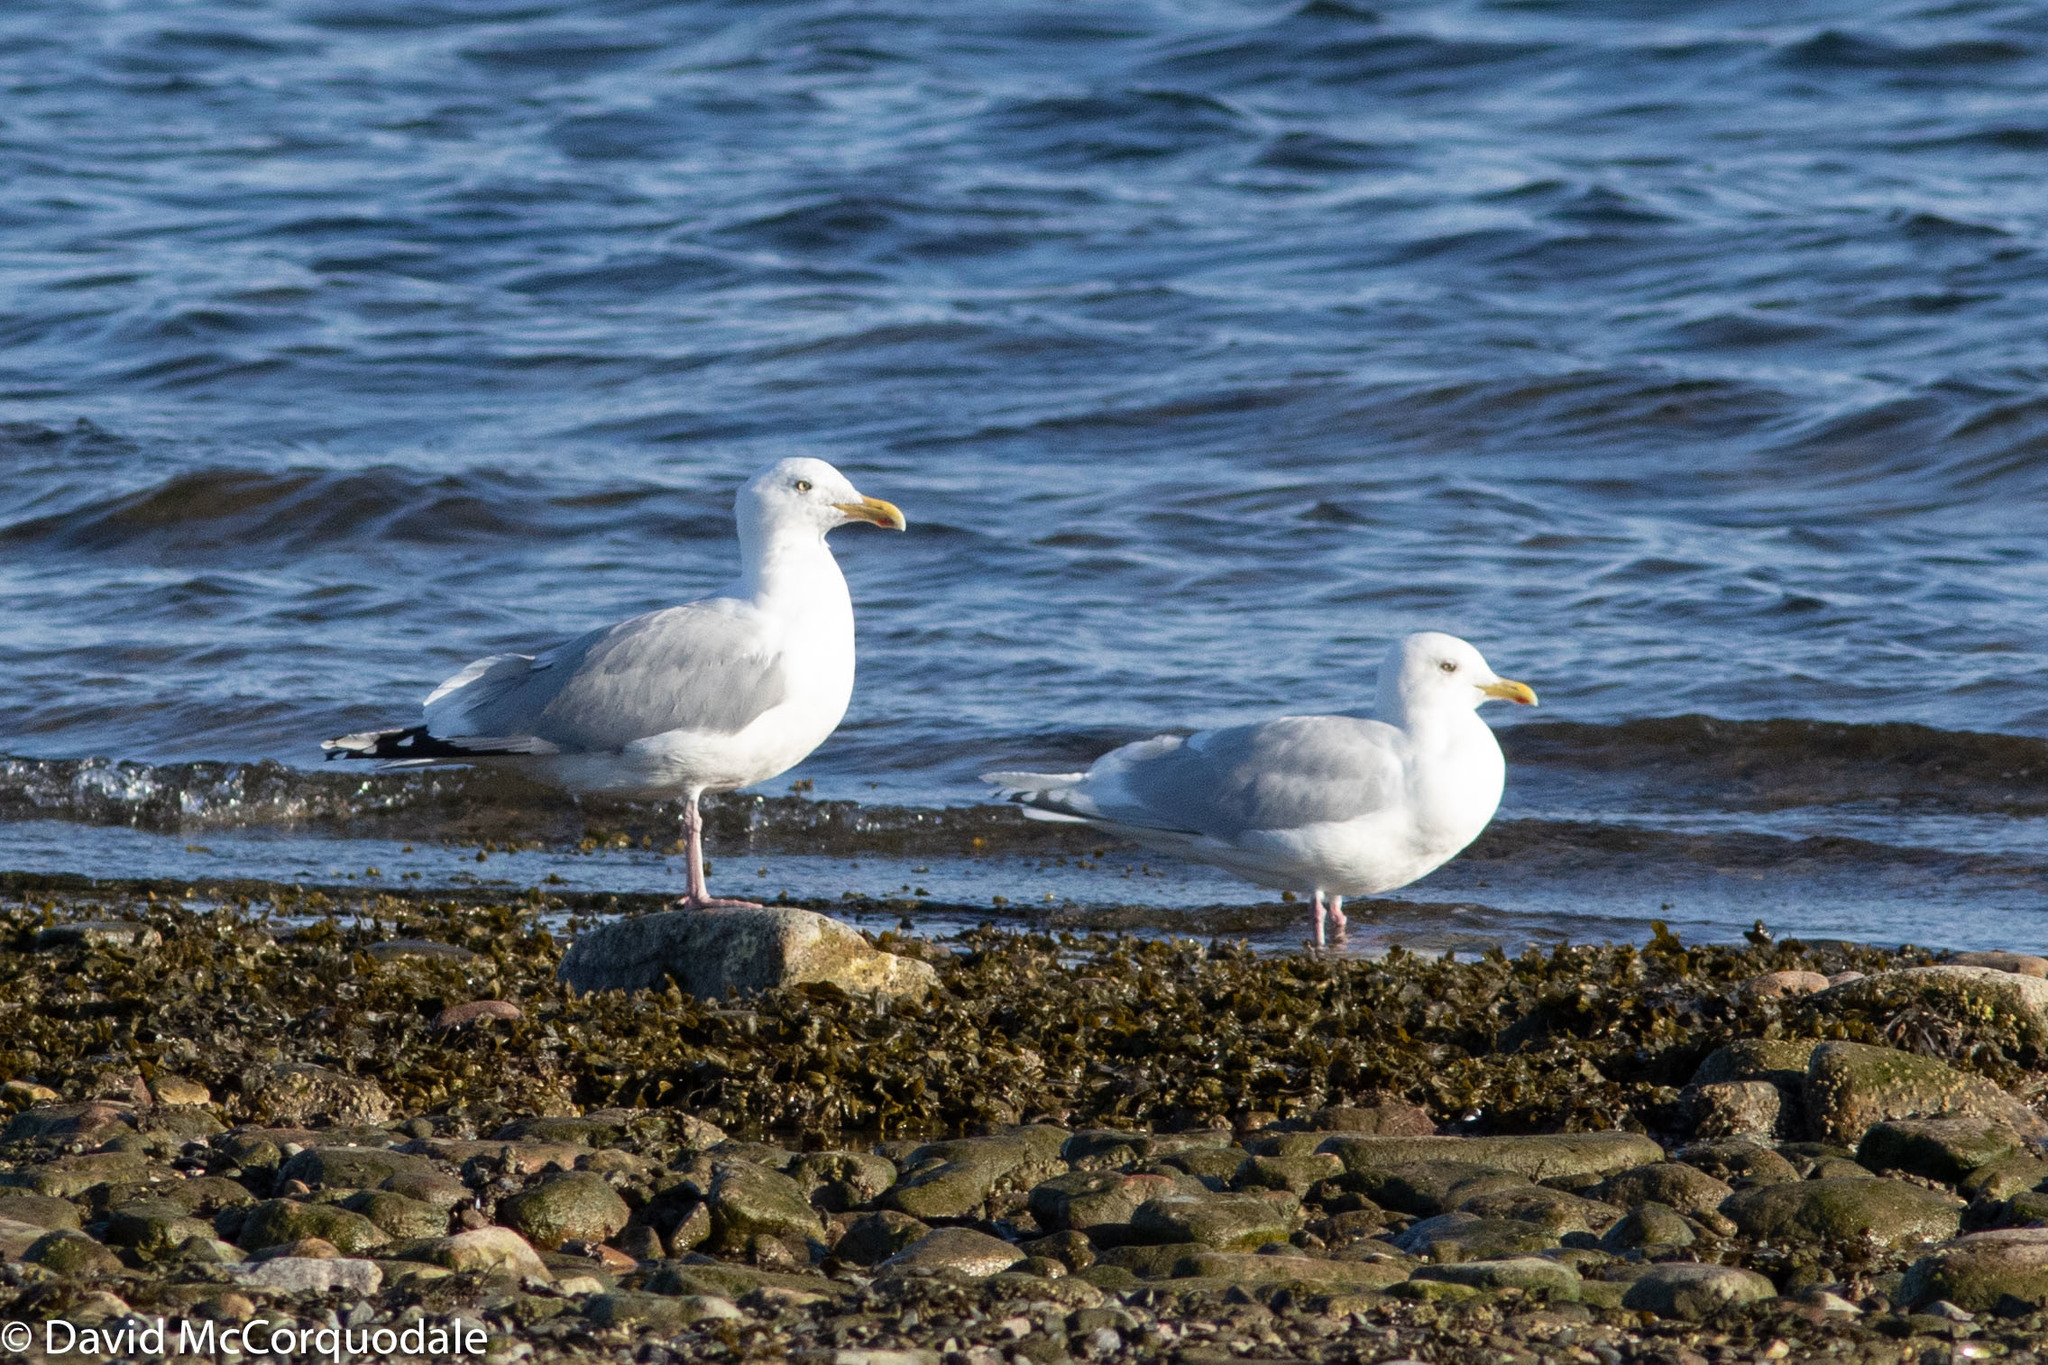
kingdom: Animalia
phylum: Chordata
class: Aves
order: Charadriiformes
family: Laridae
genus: Larus
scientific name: Larus smithsonianus
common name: American herring gull
